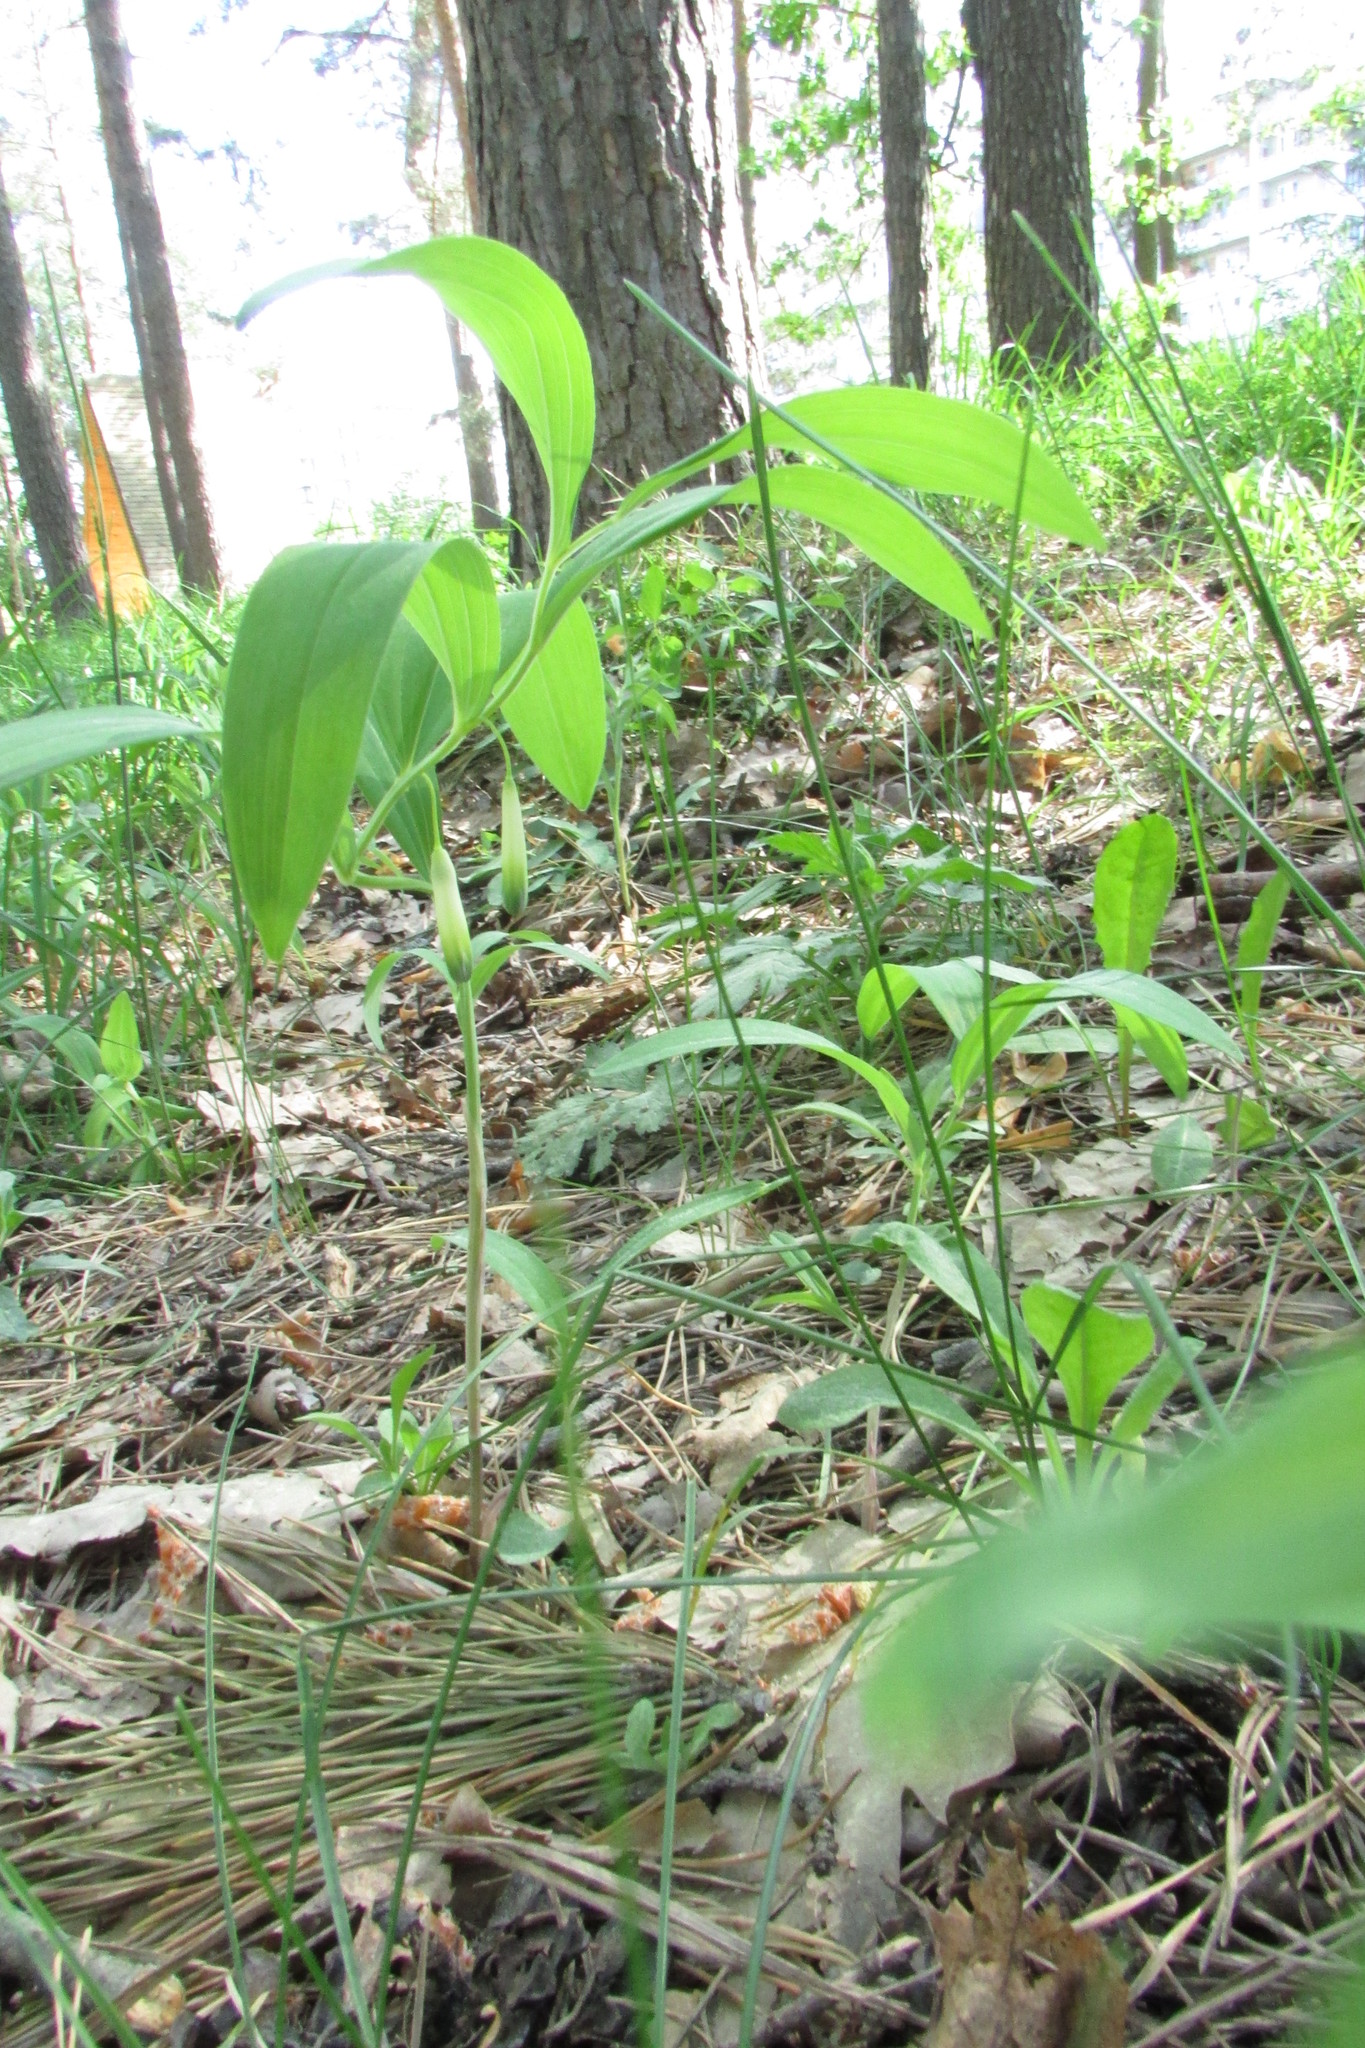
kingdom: Plantae
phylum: Tracheophyta
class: Liliopsida
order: Asparagales
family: Asparagaceae
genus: Polygonatum
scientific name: Polygonatum odoratum
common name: Angular solomon's-seal
